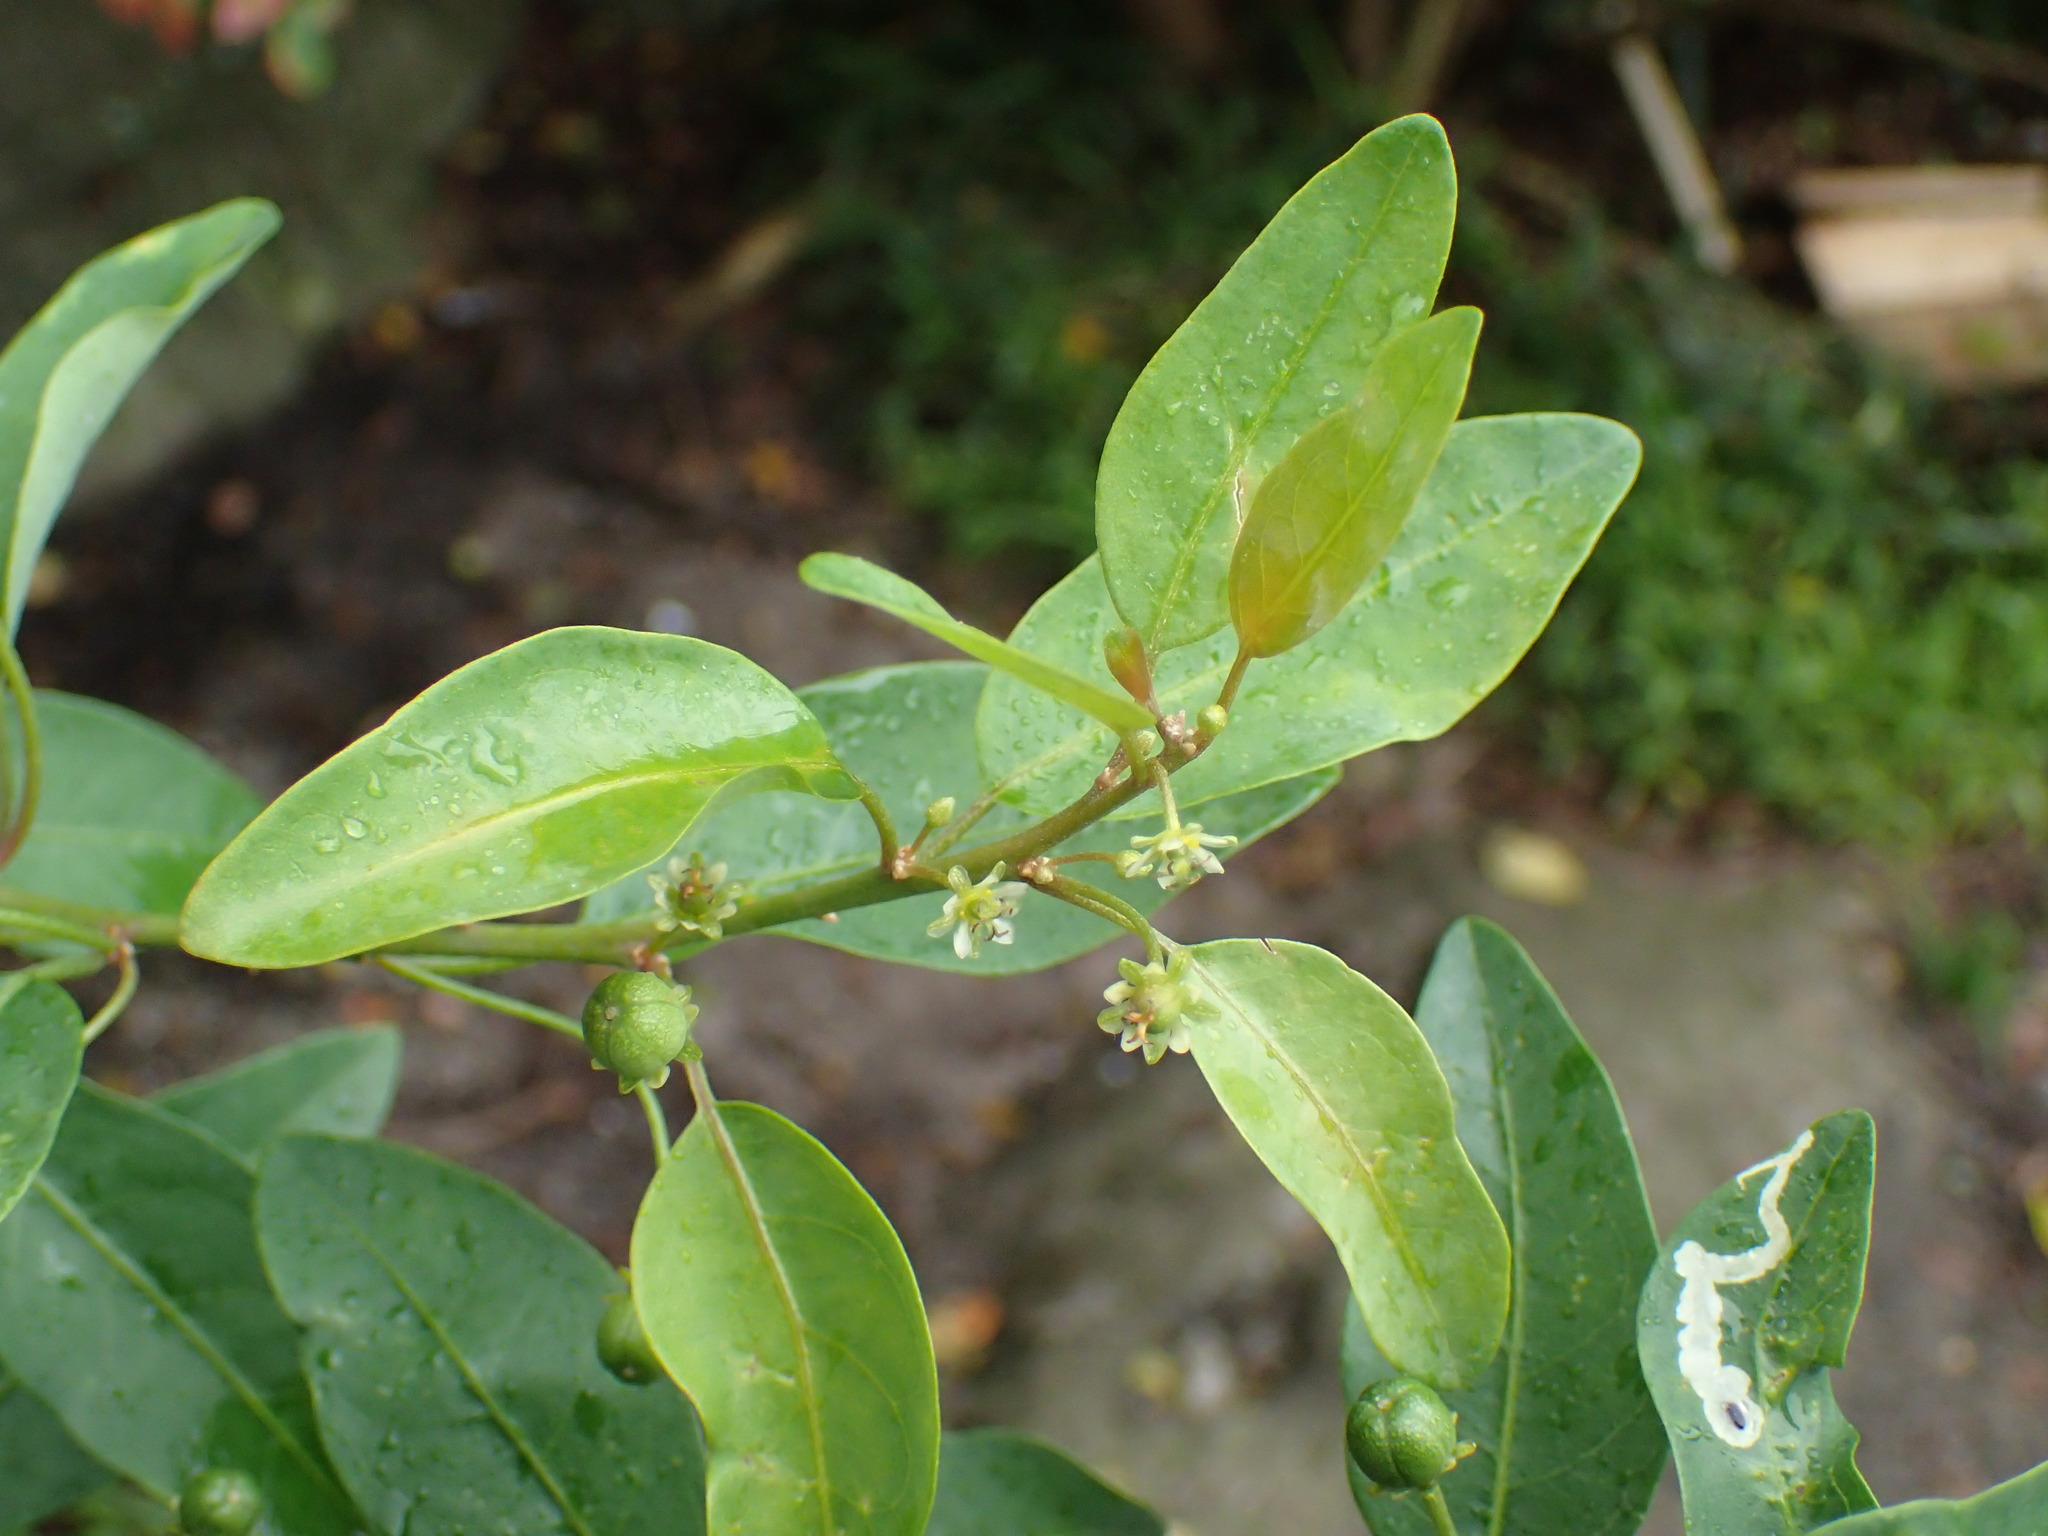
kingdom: Plantae
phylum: Tracheophyta
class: Magnoliopsida
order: Malpighiales
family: Peraceae
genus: Clutia
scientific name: Clutia pulchella
